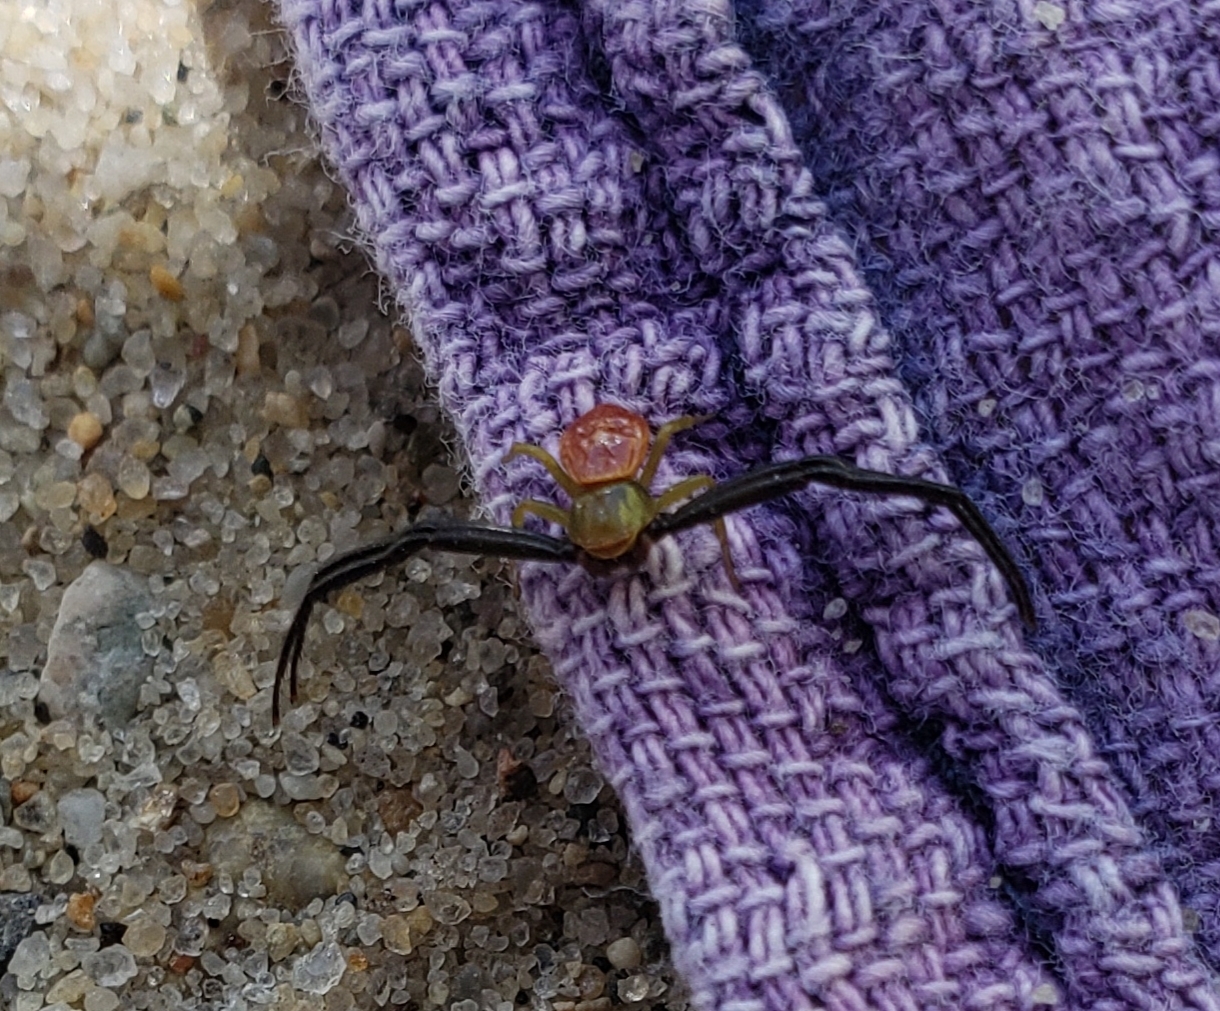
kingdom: Animalia
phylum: Arthropoda
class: Arachnida
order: Araneae
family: Thomisidae
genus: Misumenoides
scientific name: Misumenoides formosipes
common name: White-banded crab spider
